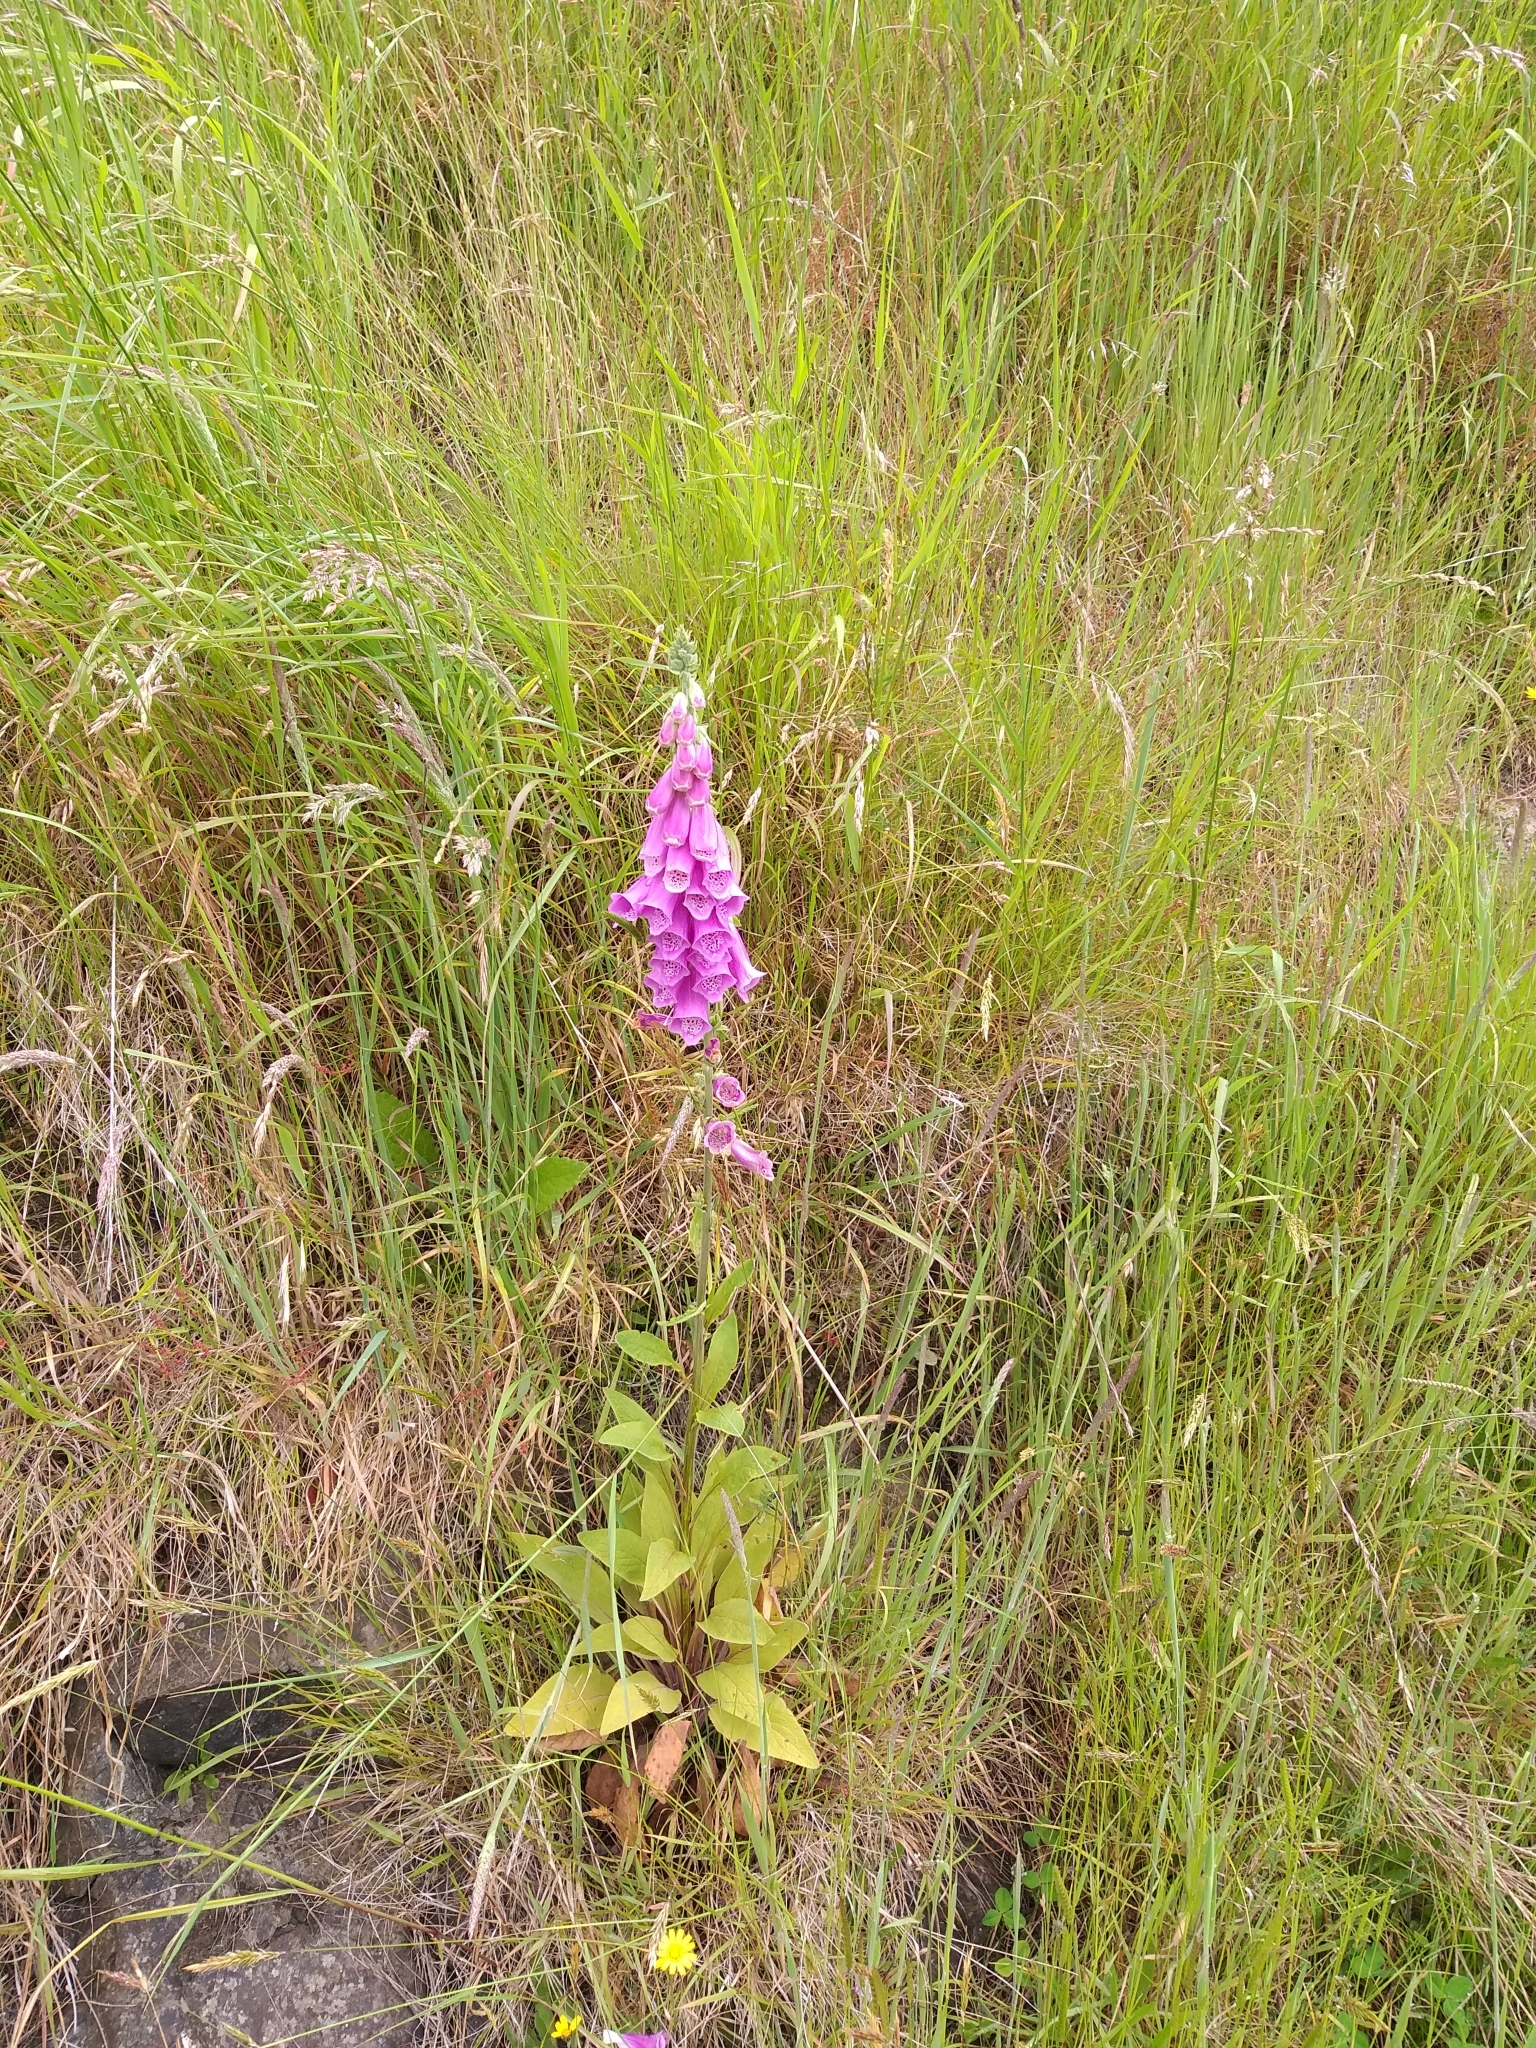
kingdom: Plantae
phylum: Tracheophyta
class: Magnoliopsida
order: Lamiales
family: Plantaginaceae
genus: Digitalis
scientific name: Digitalis purpurea
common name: Foxglove
